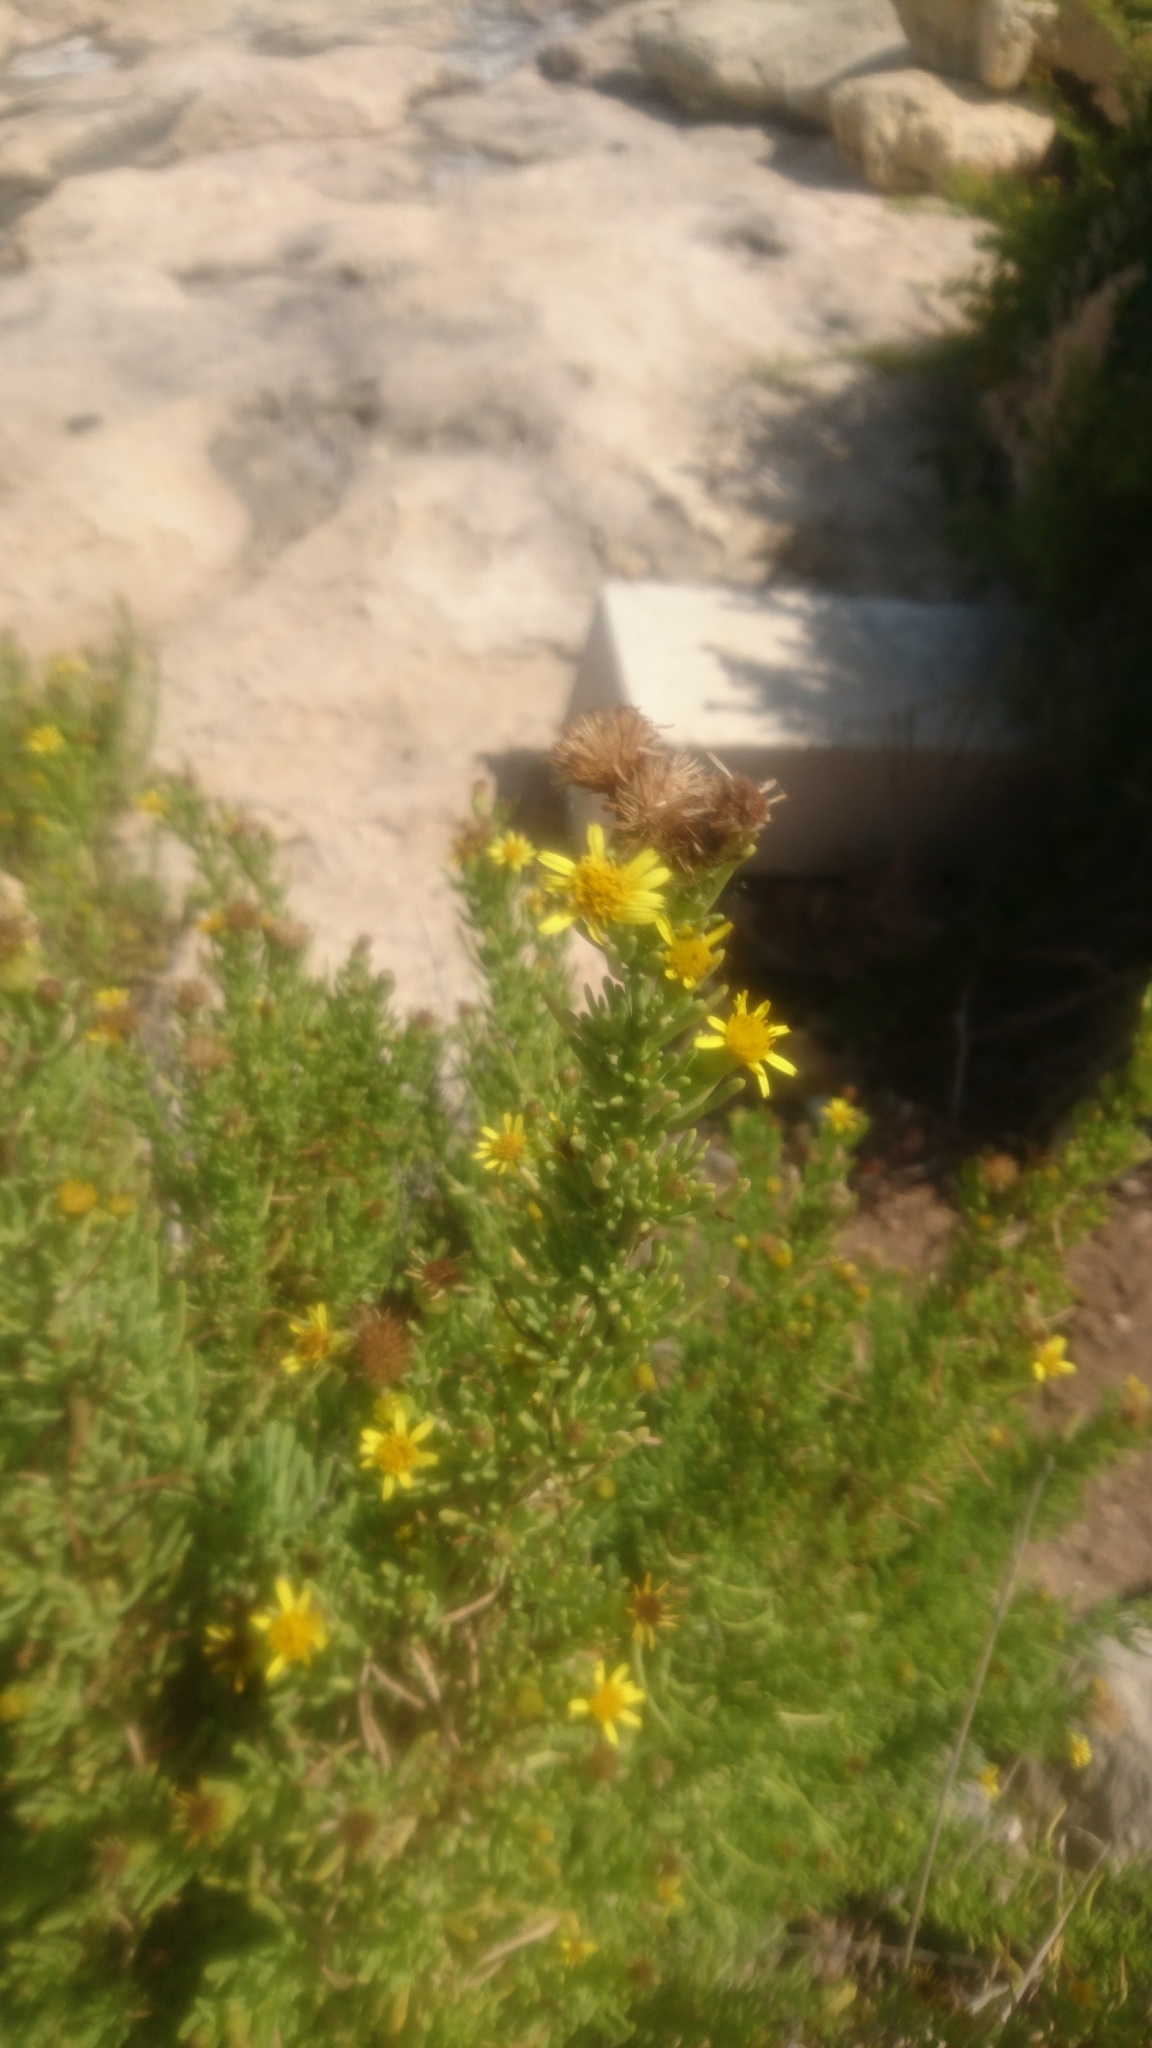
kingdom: Plantae
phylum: Tracheophyta
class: Magnoliopsida
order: Asterales
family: Asteraceae
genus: Limbarda
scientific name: Limbarda crithmoides
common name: Golden samphire
